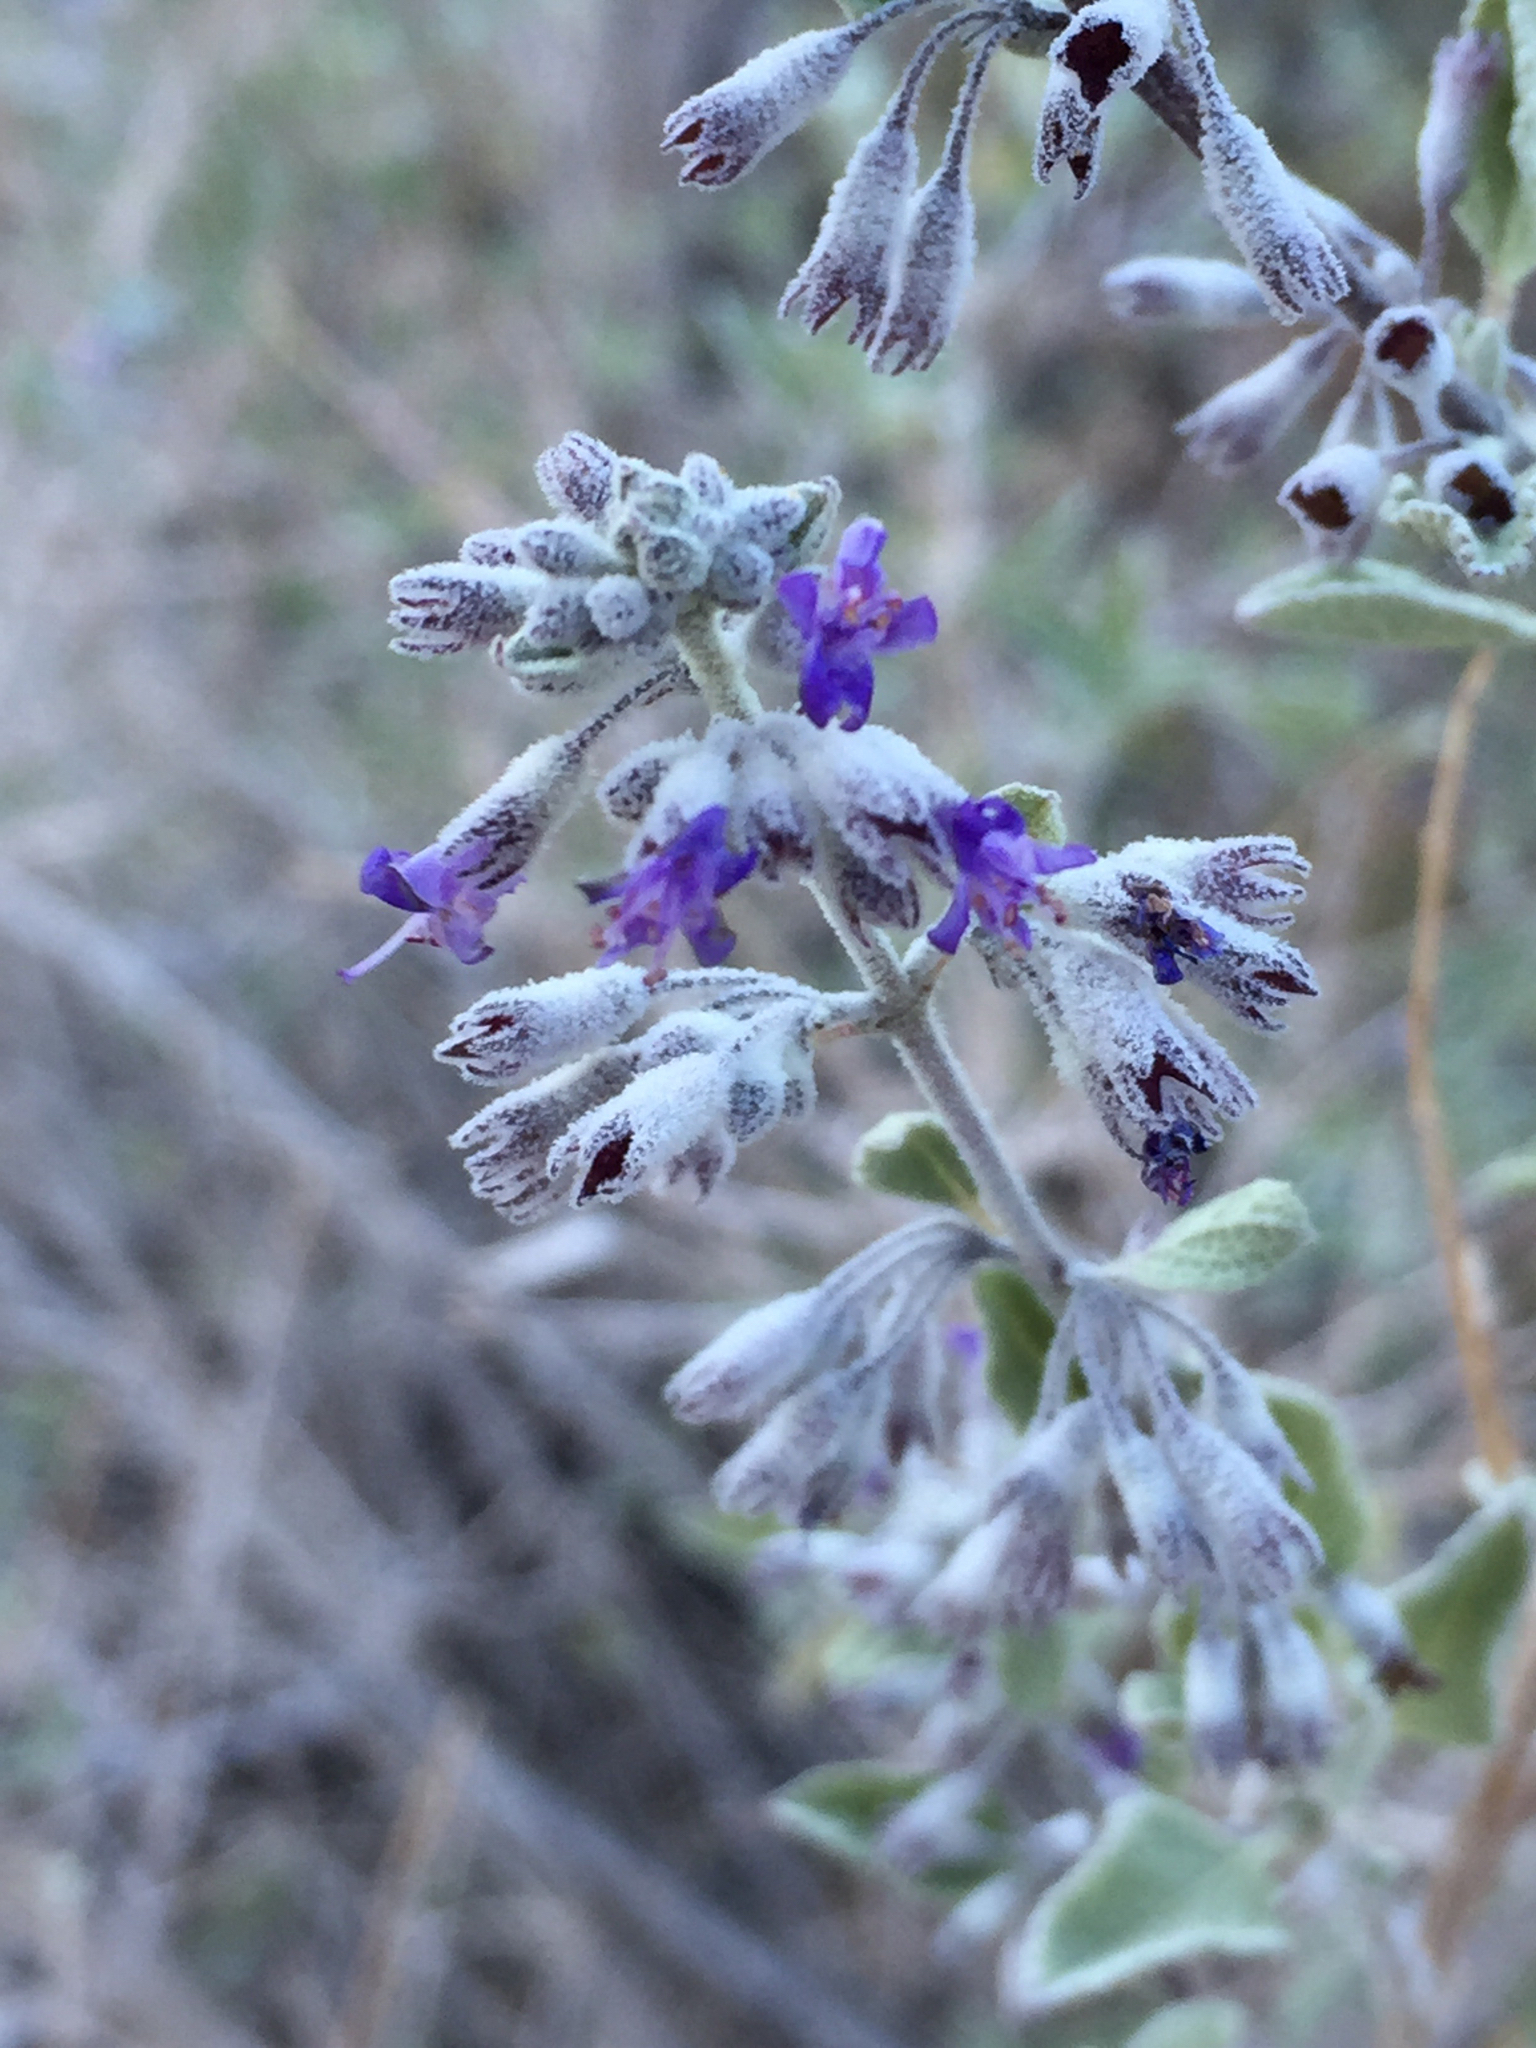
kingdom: Plantae
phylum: Tracheophyta
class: Magnoliopsida
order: Lamiales
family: Lamiaceae
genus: Condea
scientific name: Condea emoryi
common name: Chia
